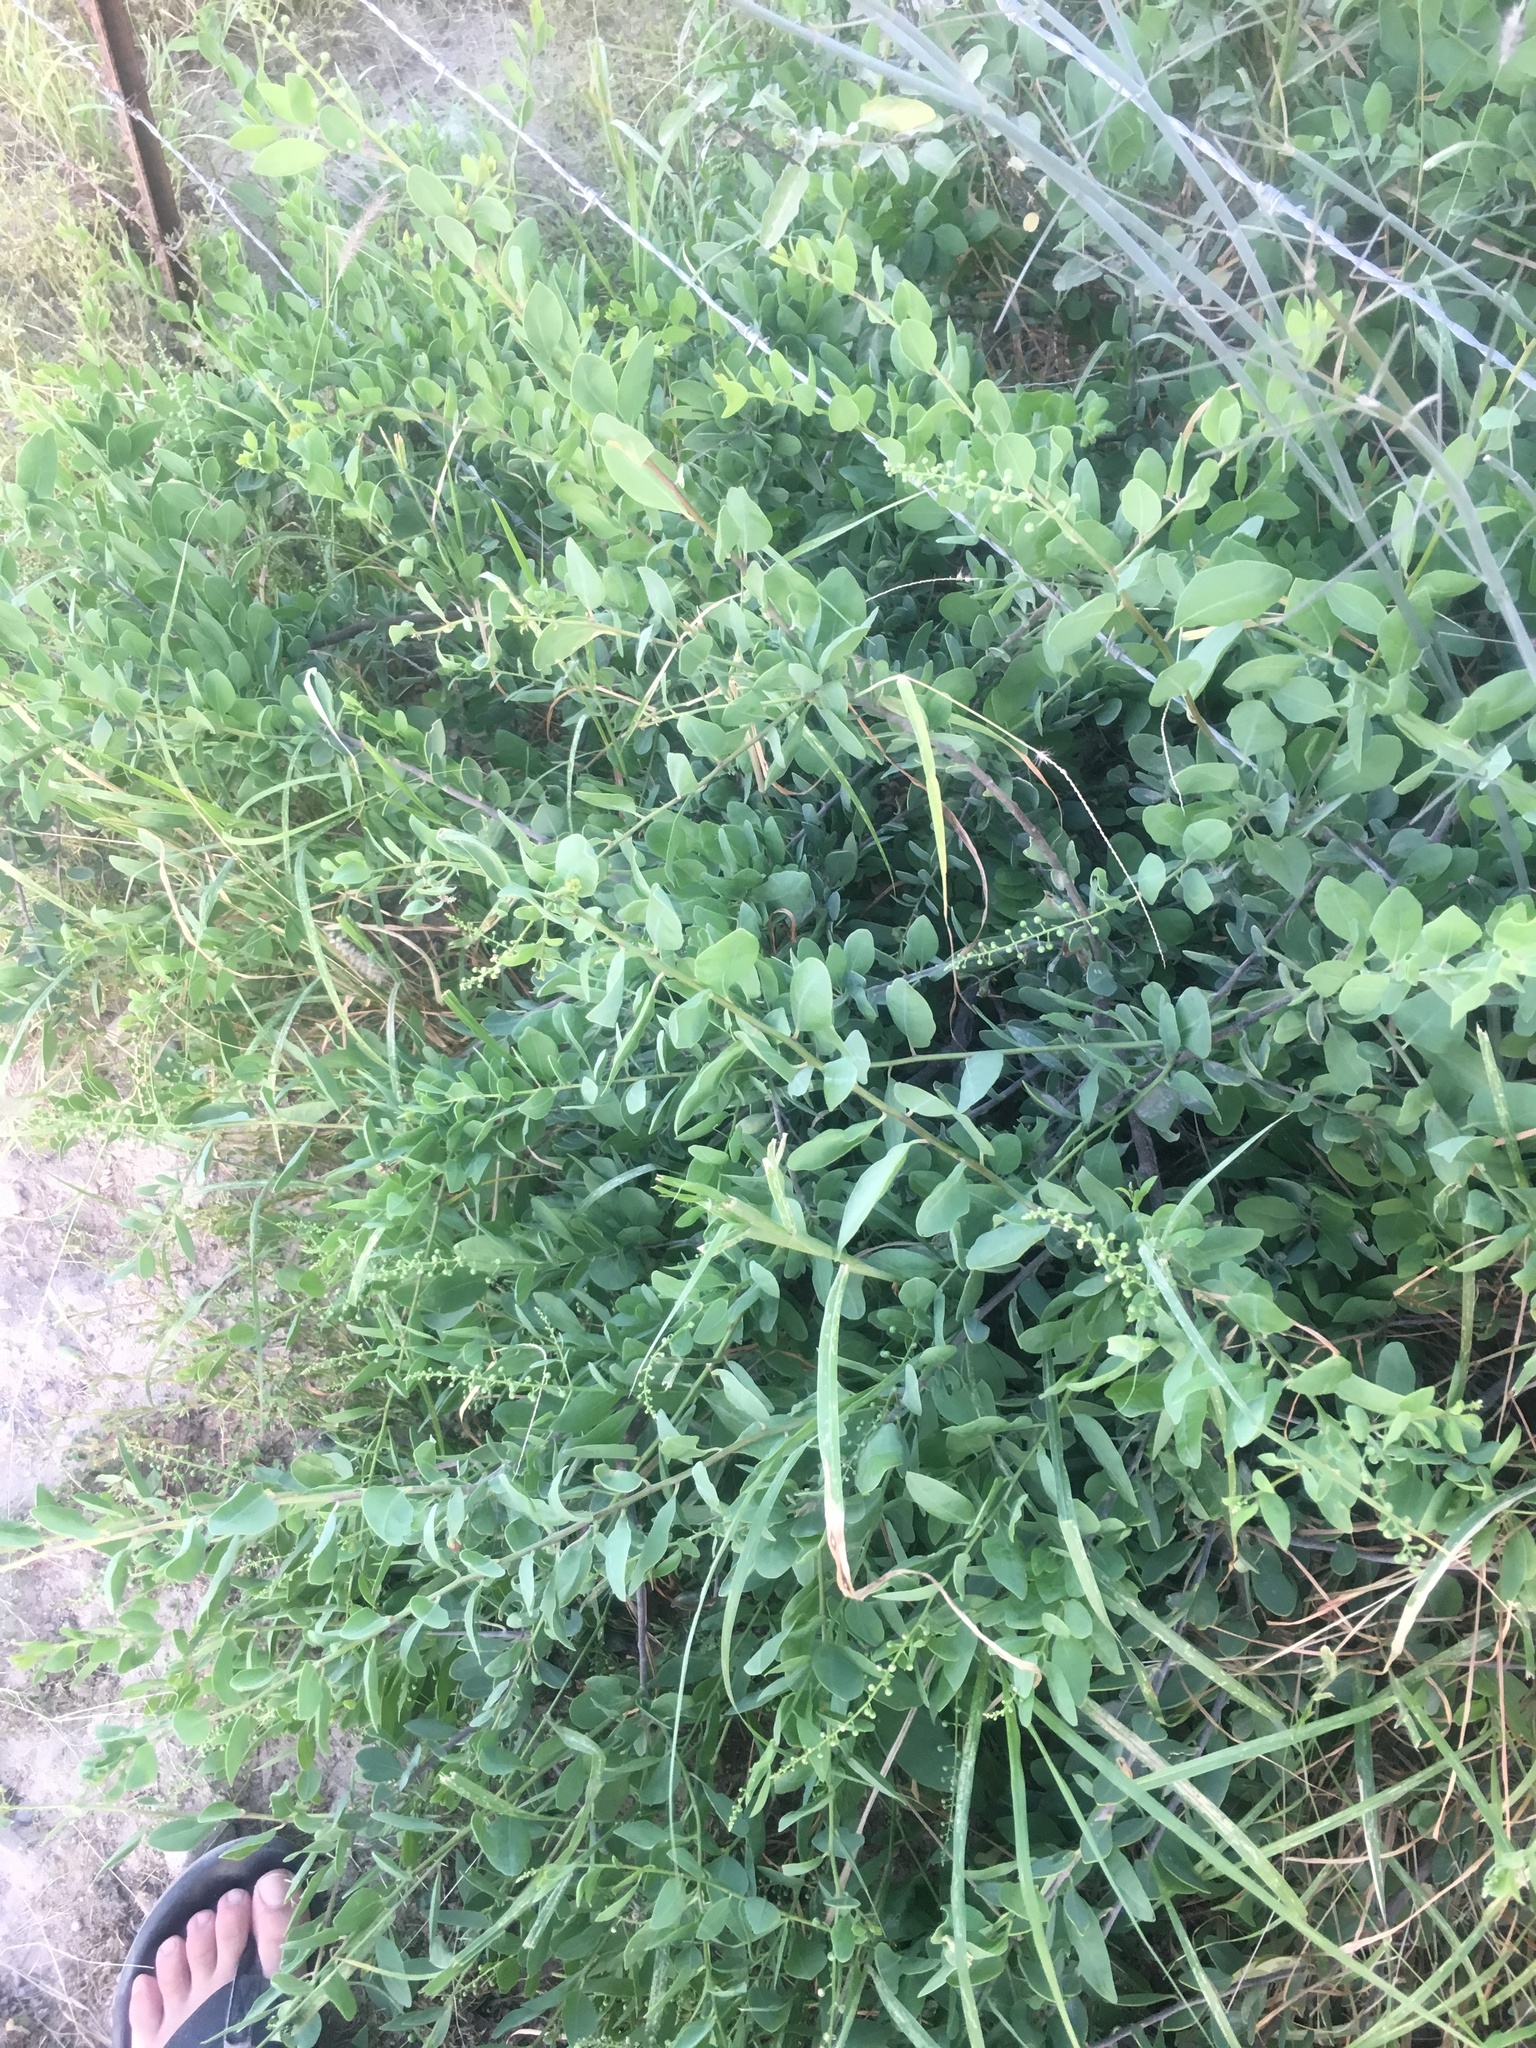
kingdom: Plantae
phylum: Tracheophyta
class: Magnoliopsida
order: Caryophyllales
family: Stegnospermataceae
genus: Stegnosperma
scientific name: Stegnosperma halimifolium
